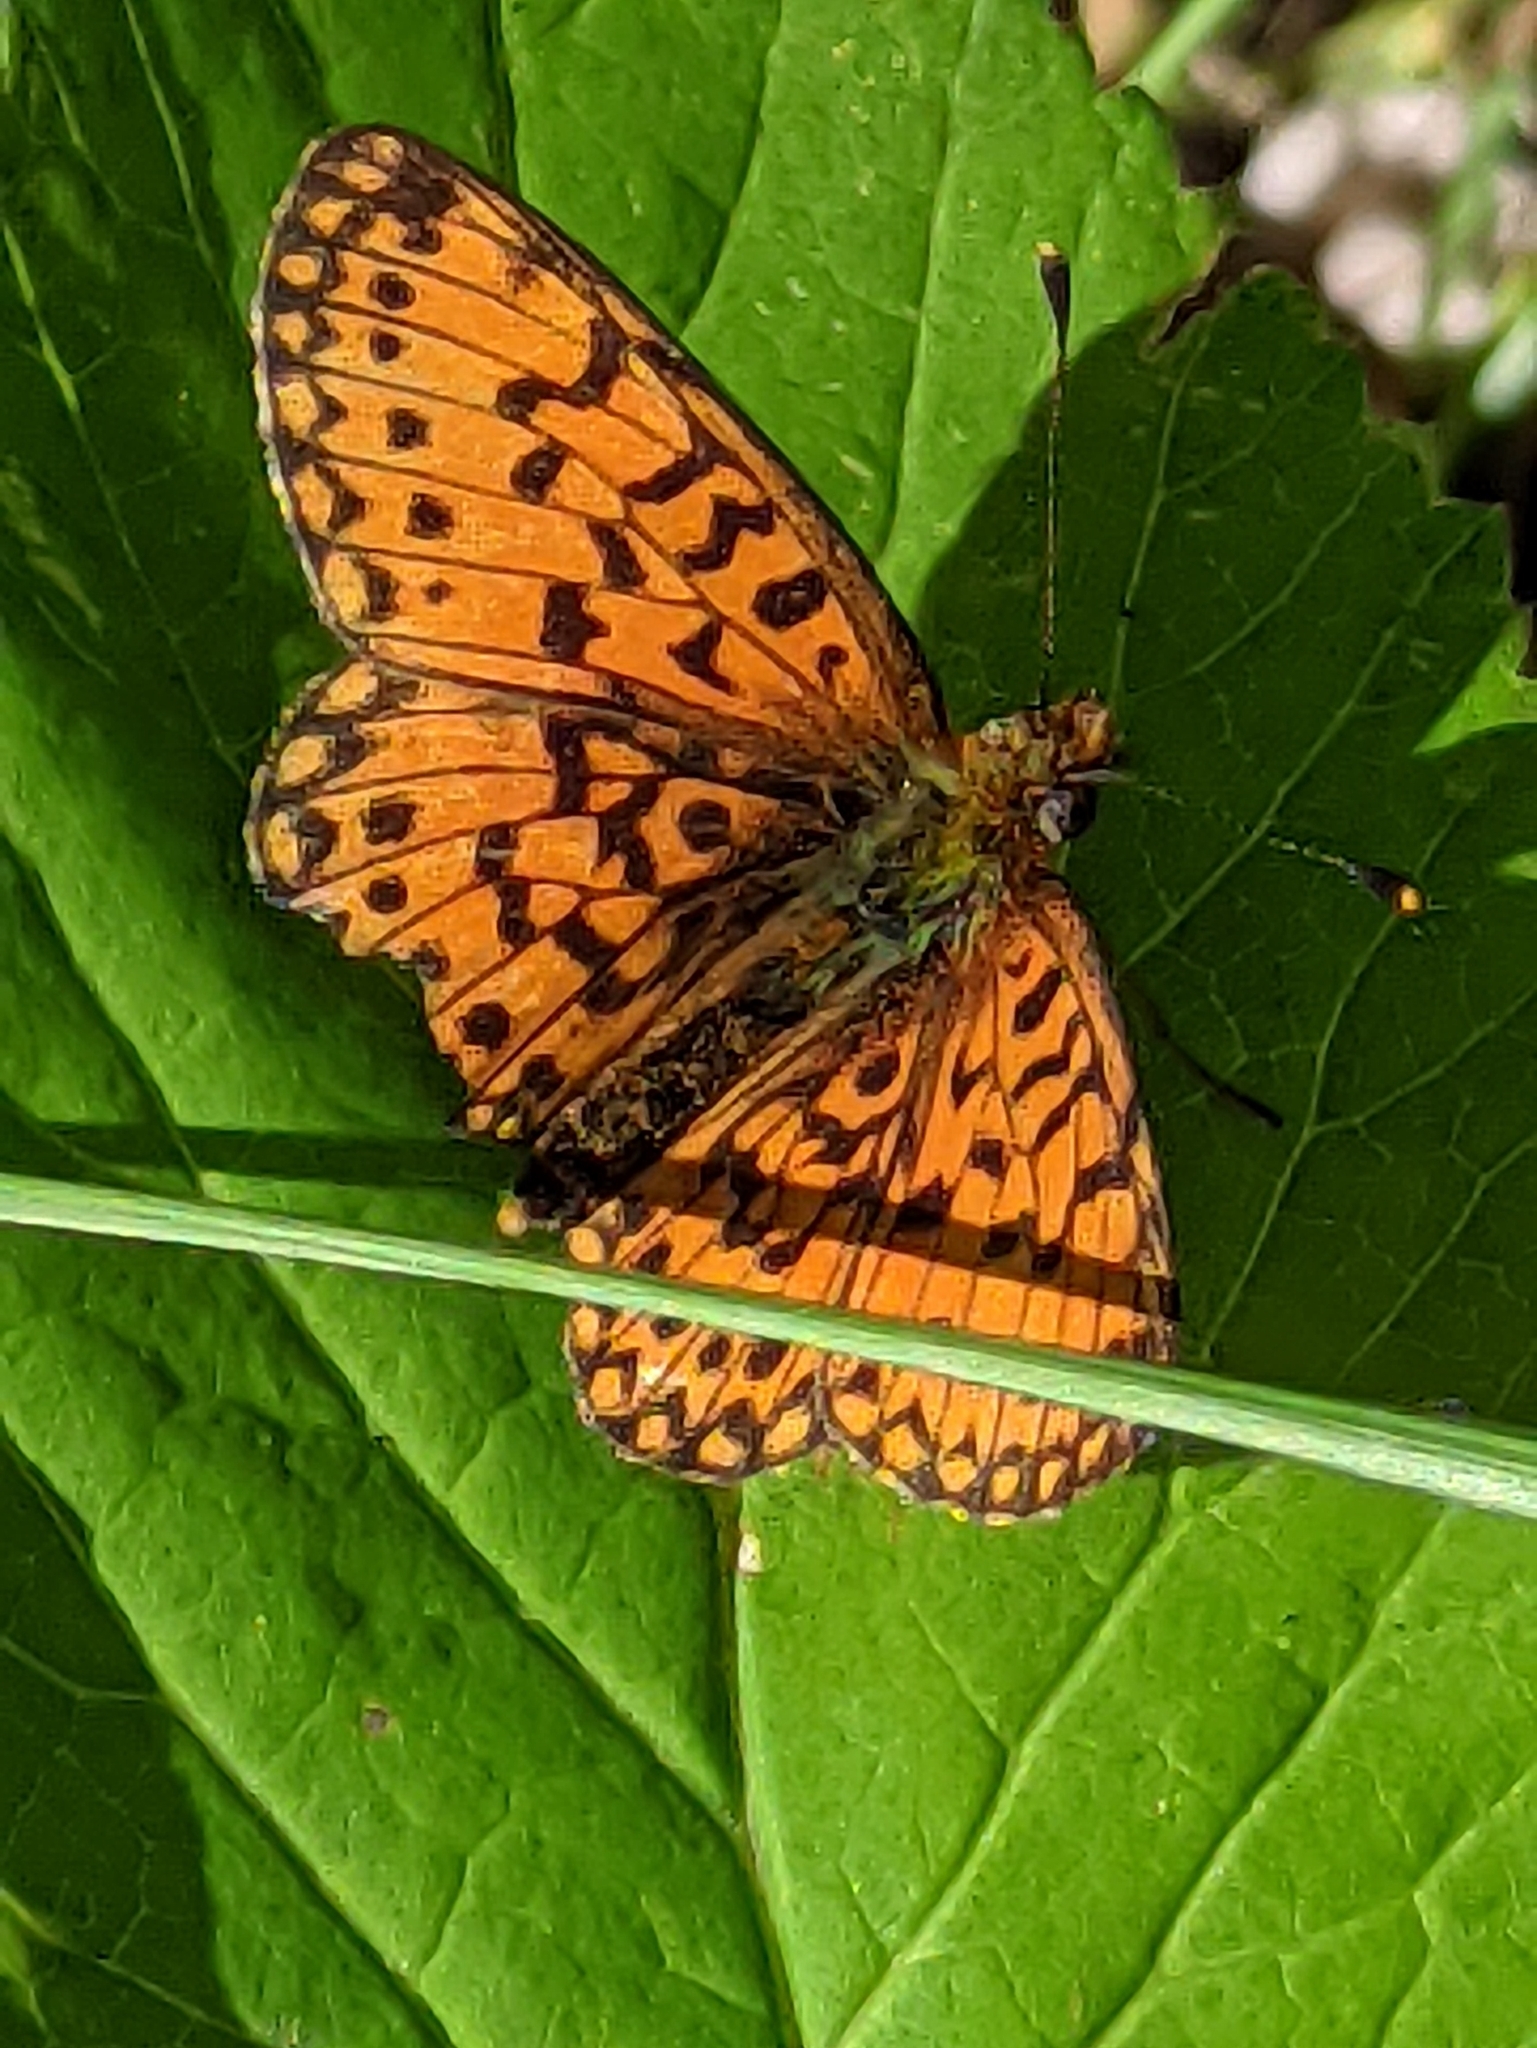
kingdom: Animalia
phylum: Arthropoda
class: Insecta
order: Lepidoptera
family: Nymphalidae
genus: Boloria
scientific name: Boloria selene
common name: Small pearl-bordered fritillary
